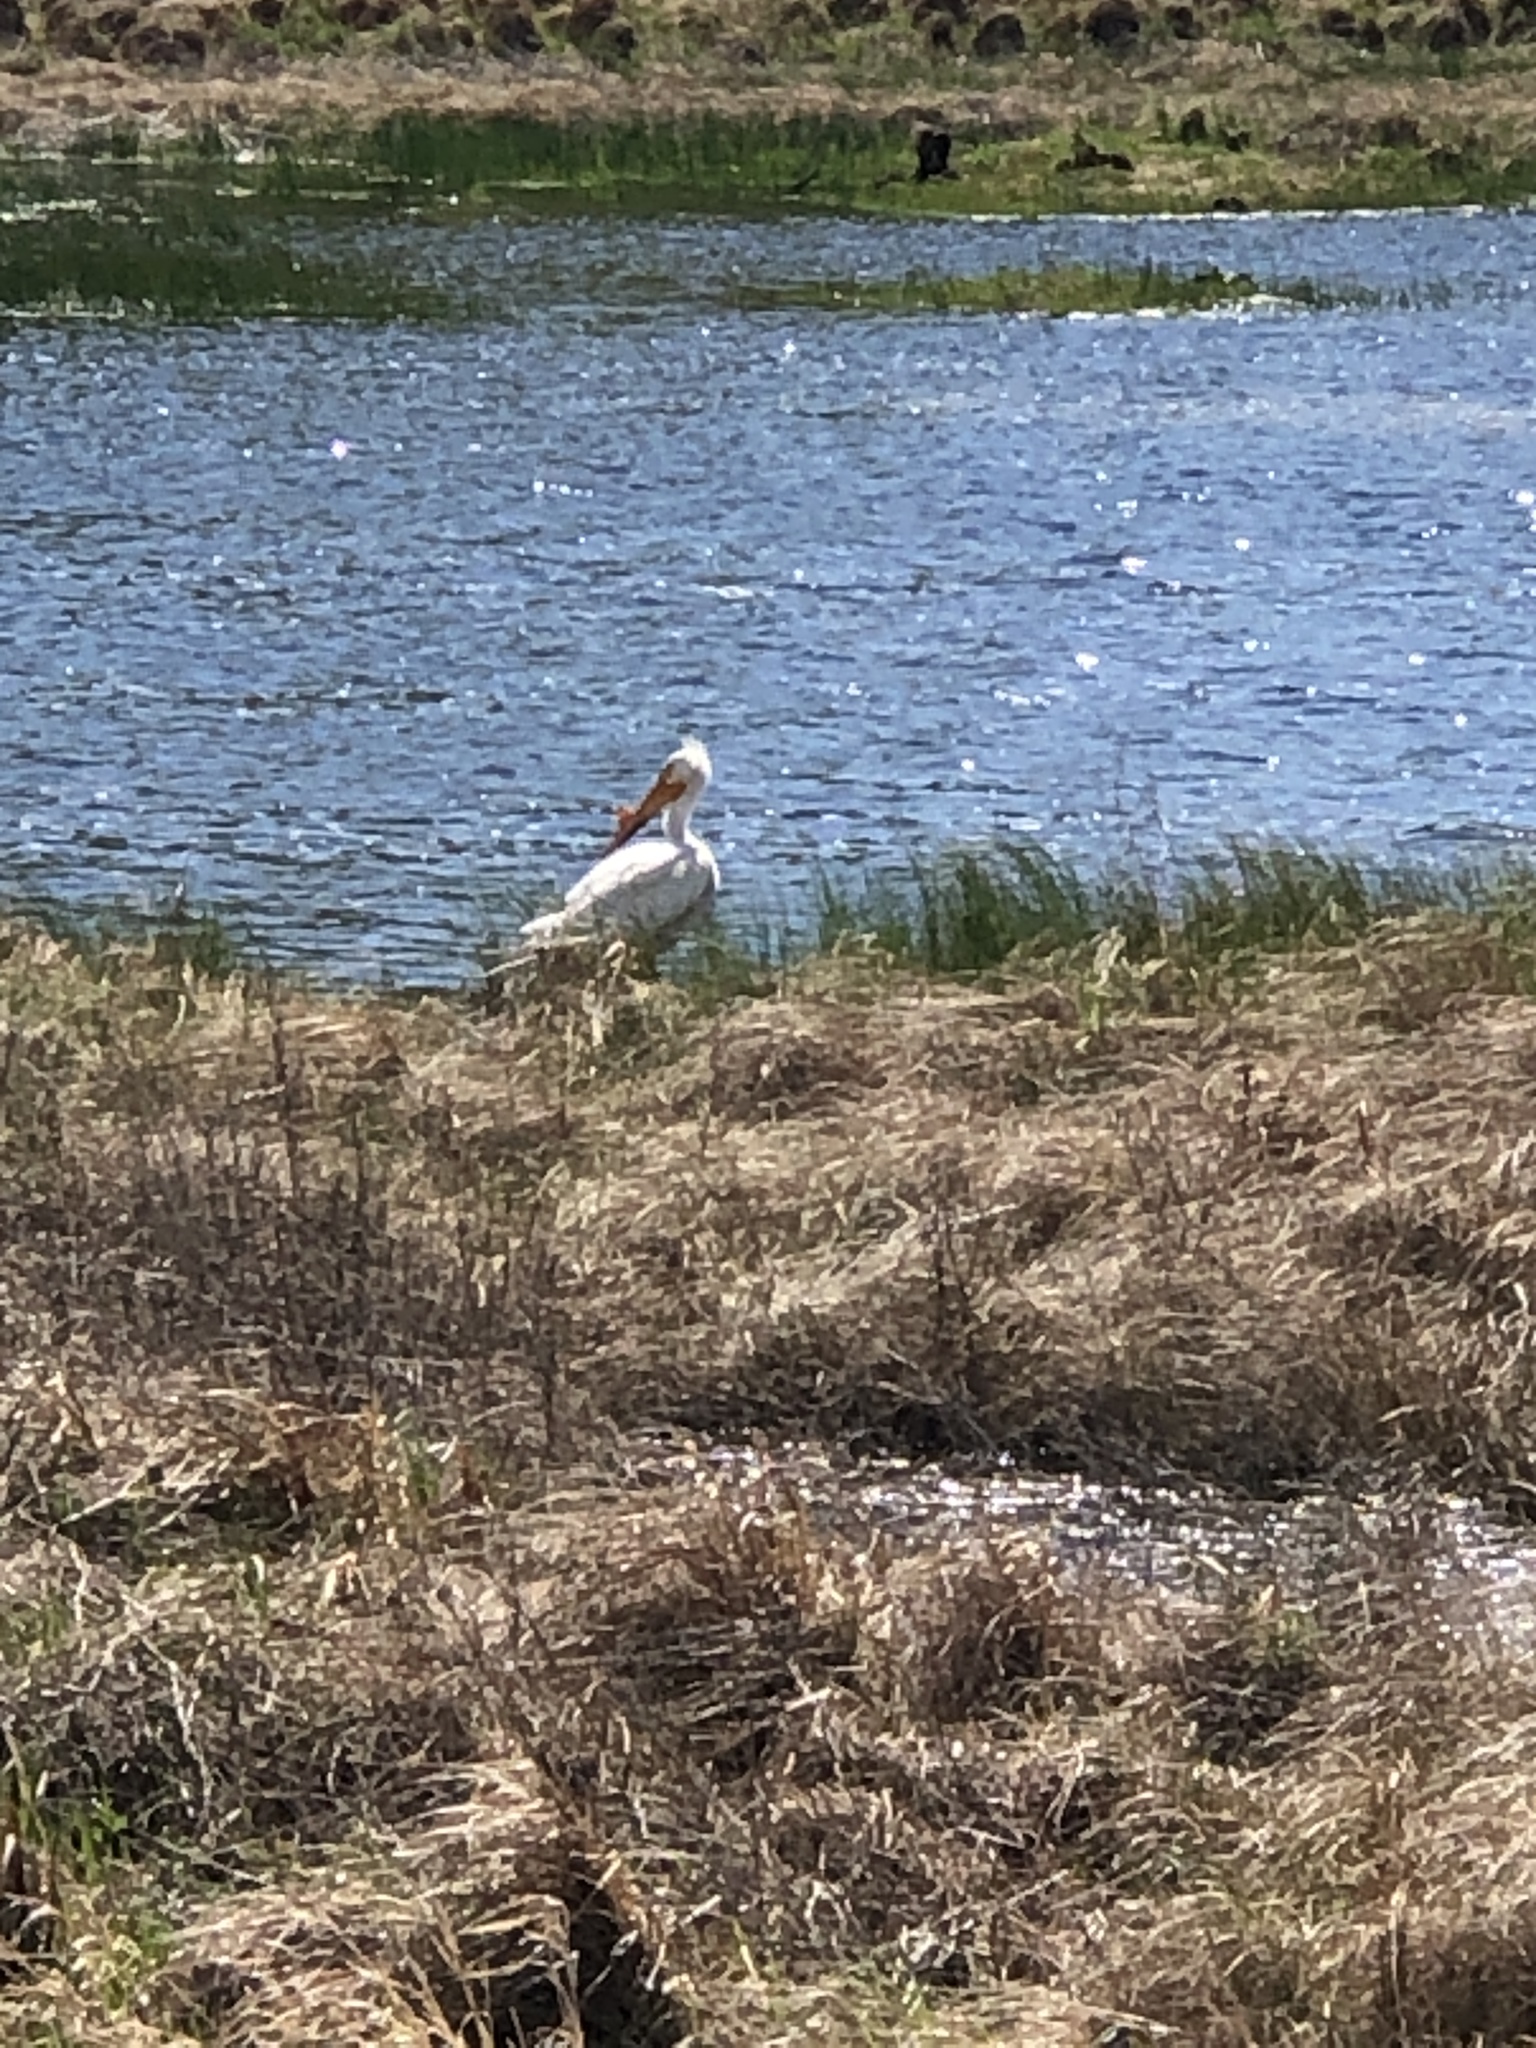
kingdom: Animalia
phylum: Chordata
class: Aves
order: Pelecaniformes
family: Pelecanidae
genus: Pelecanus
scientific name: Pelecanus erythrorhynchos
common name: American white pelican
